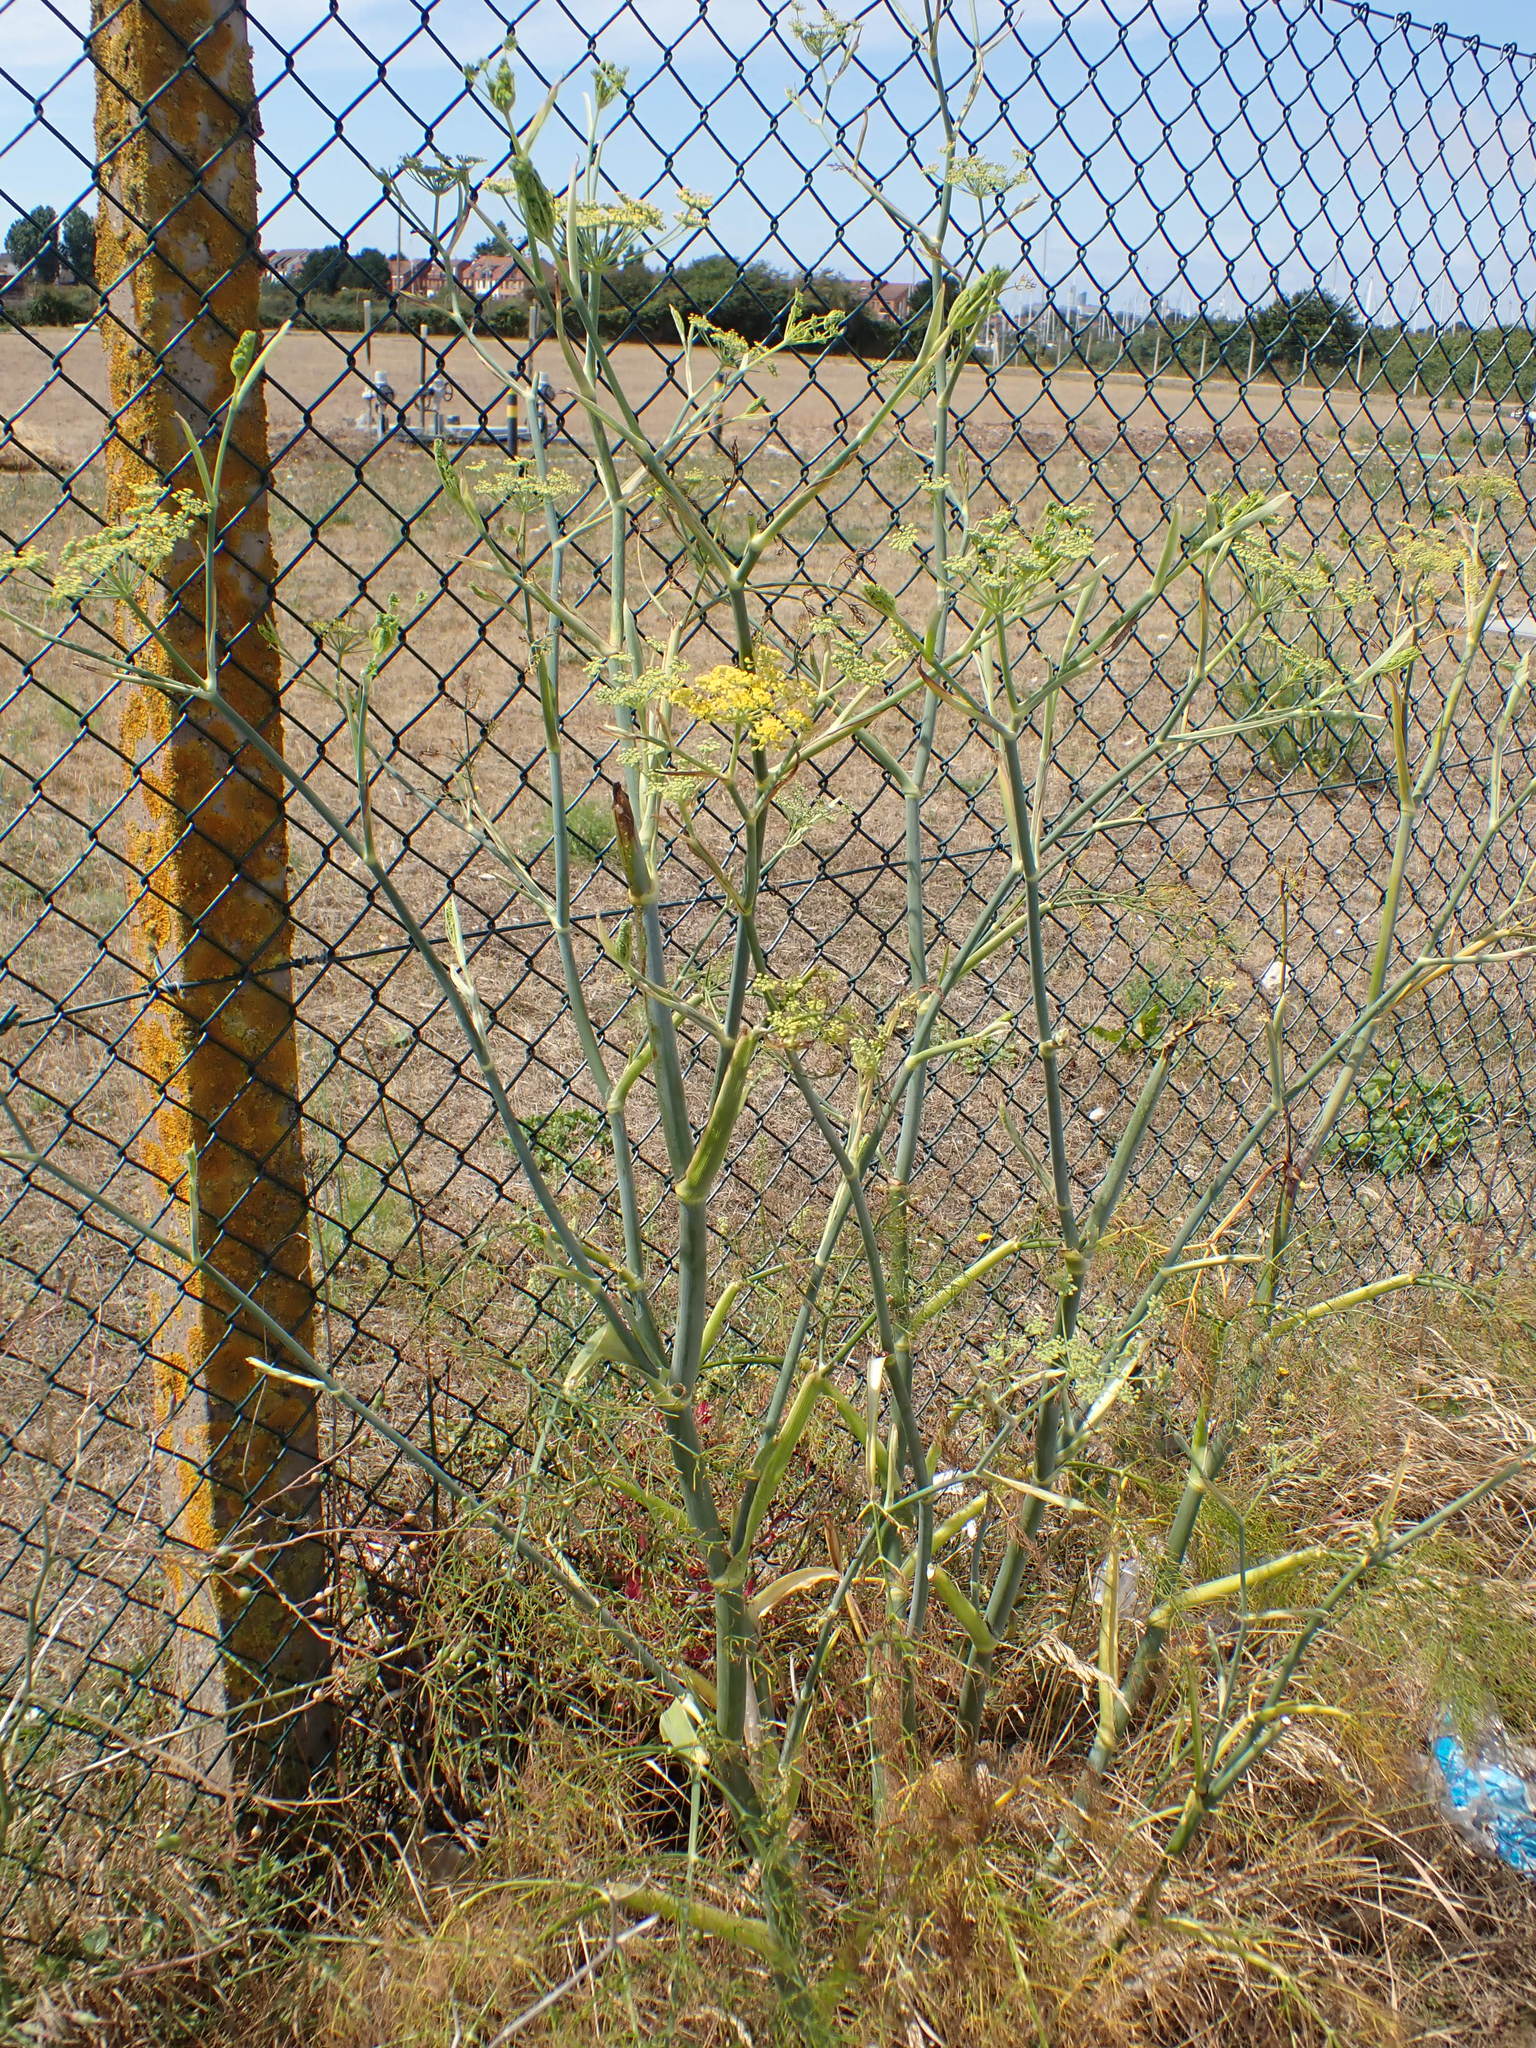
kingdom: Plantae
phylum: Tracheophyta
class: Magnoliopsida
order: Apiales
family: Apiaceae
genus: Foeniculum
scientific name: Foeniculum vulgare
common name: Fennel
